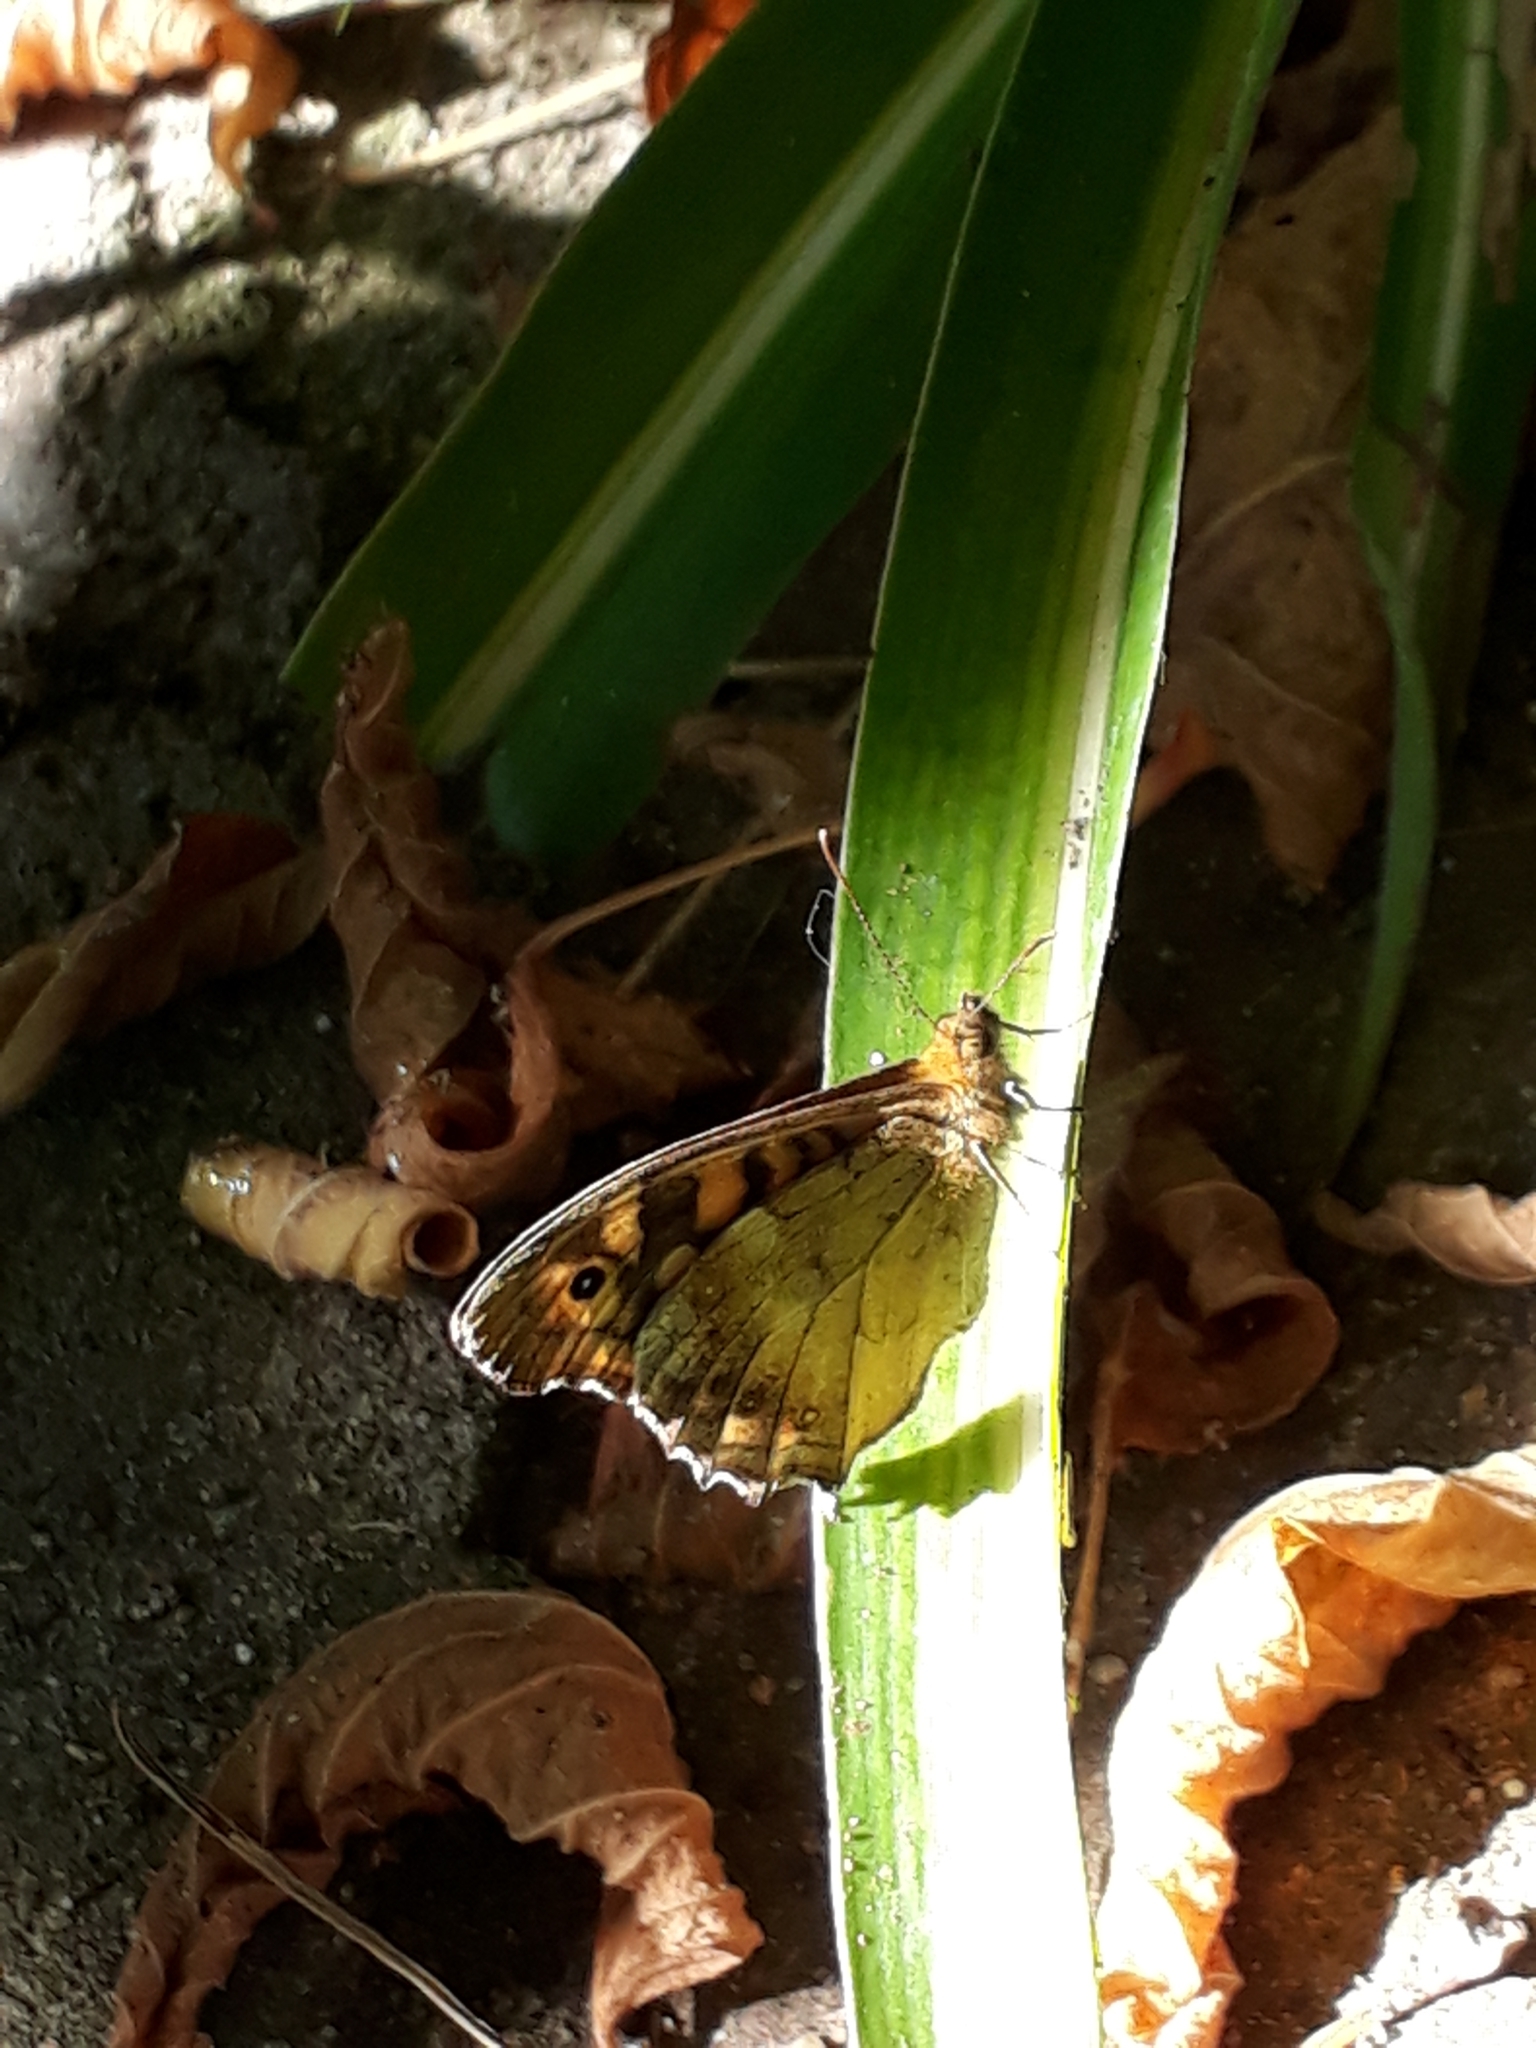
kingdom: Animalia
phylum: Arthropoda
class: Insecta
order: Lepidoptera
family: Nymphalidae
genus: Pararge
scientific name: Pararge aegeria
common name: Speckled wood
